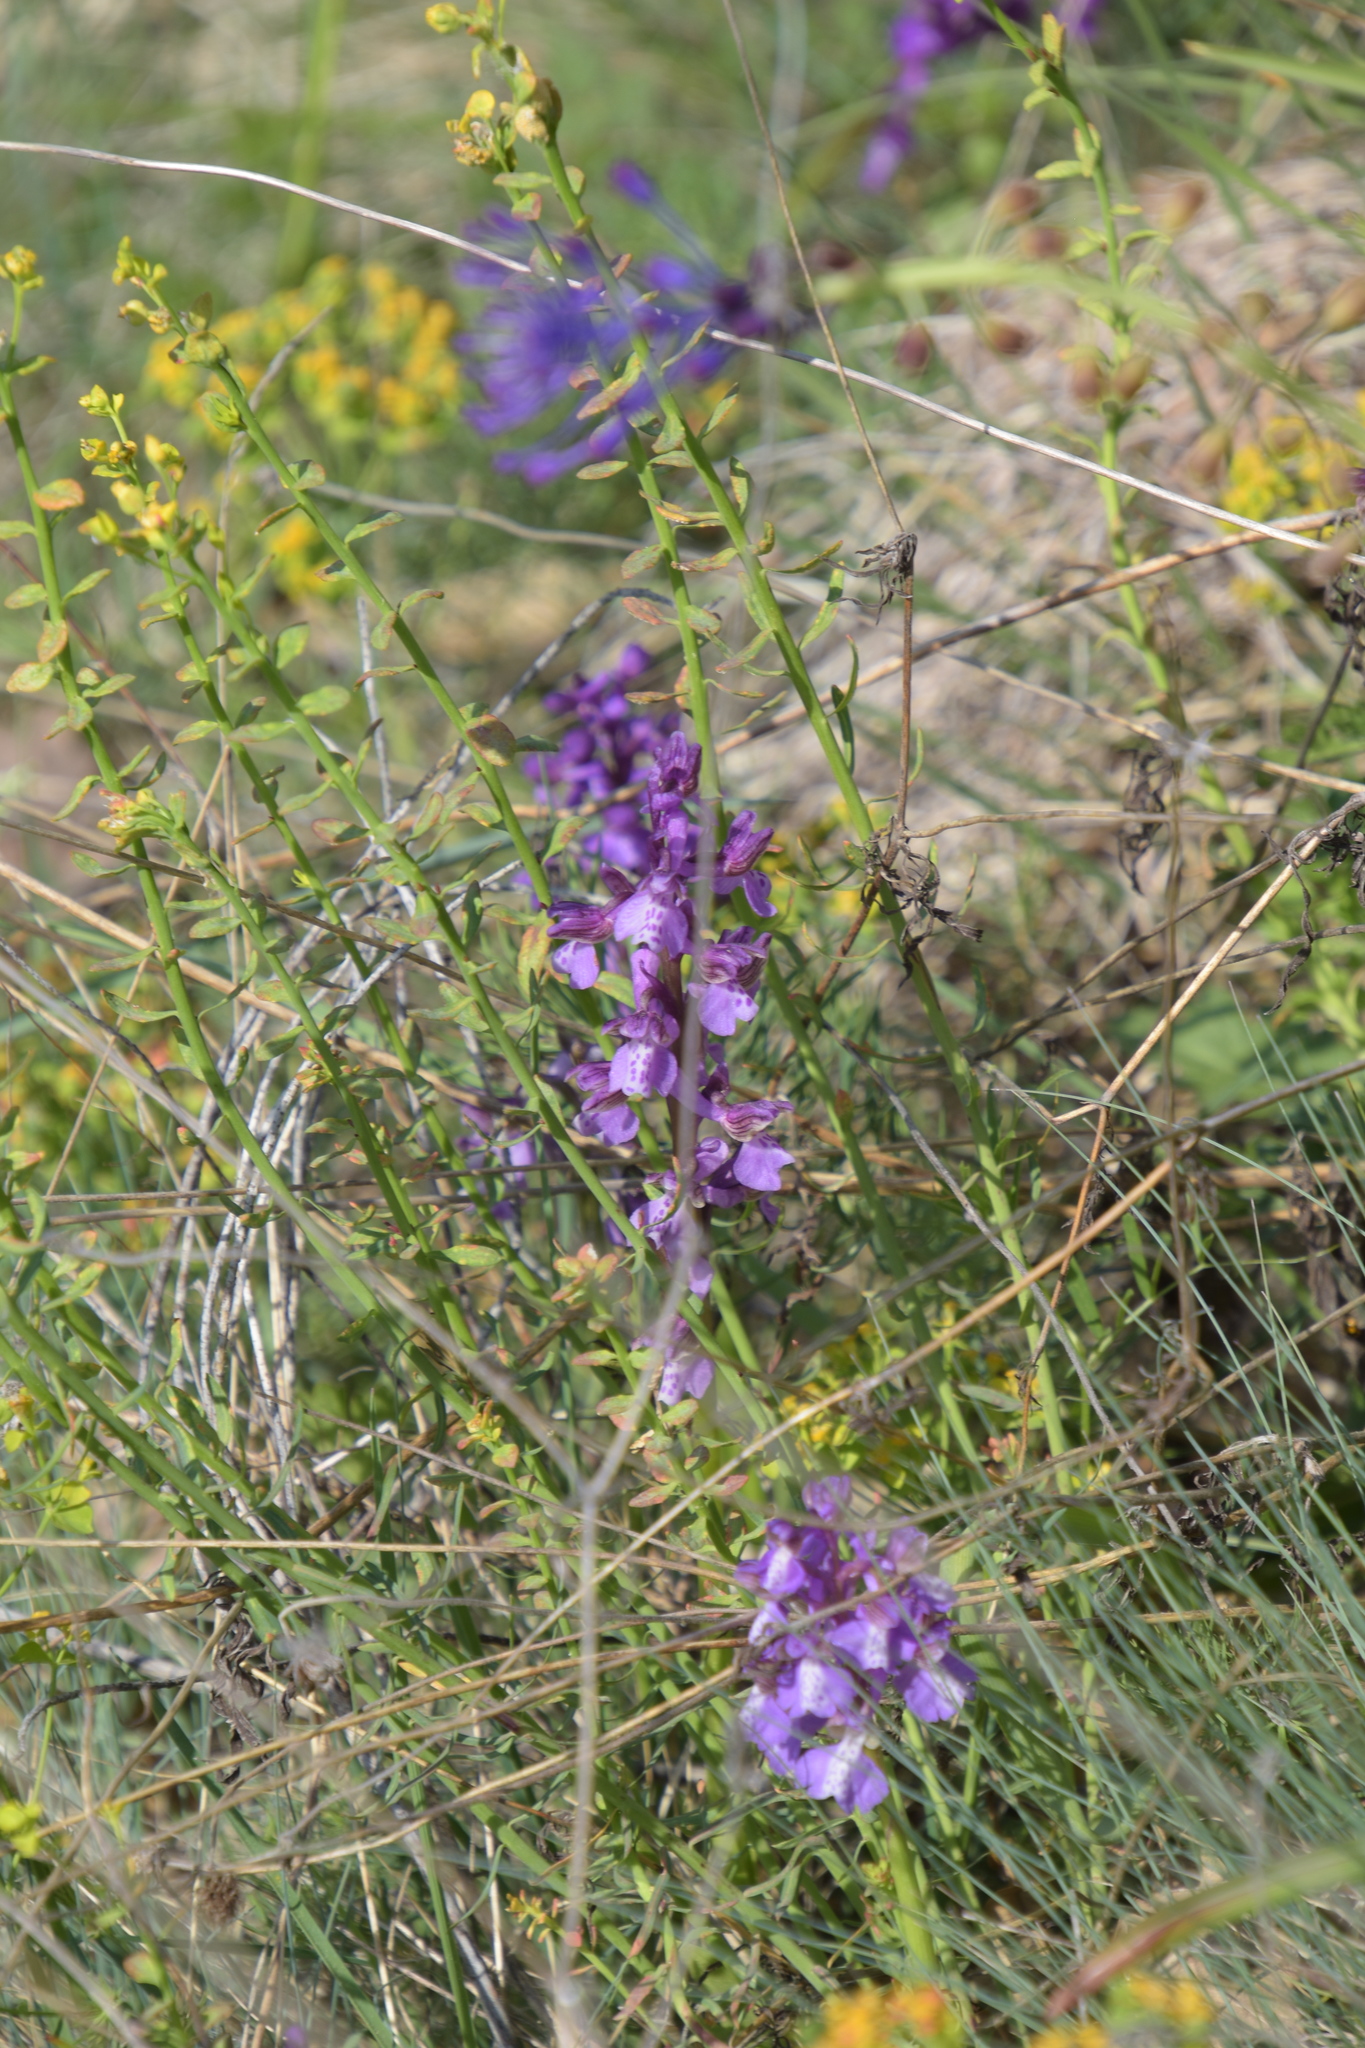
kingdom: Plantae
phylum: Tracheophyta
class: Liliopsida
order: Asparagales
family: Orchidaceae
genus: Anacamptis
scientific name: Anacamptis morio
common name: Green-winged orchid
